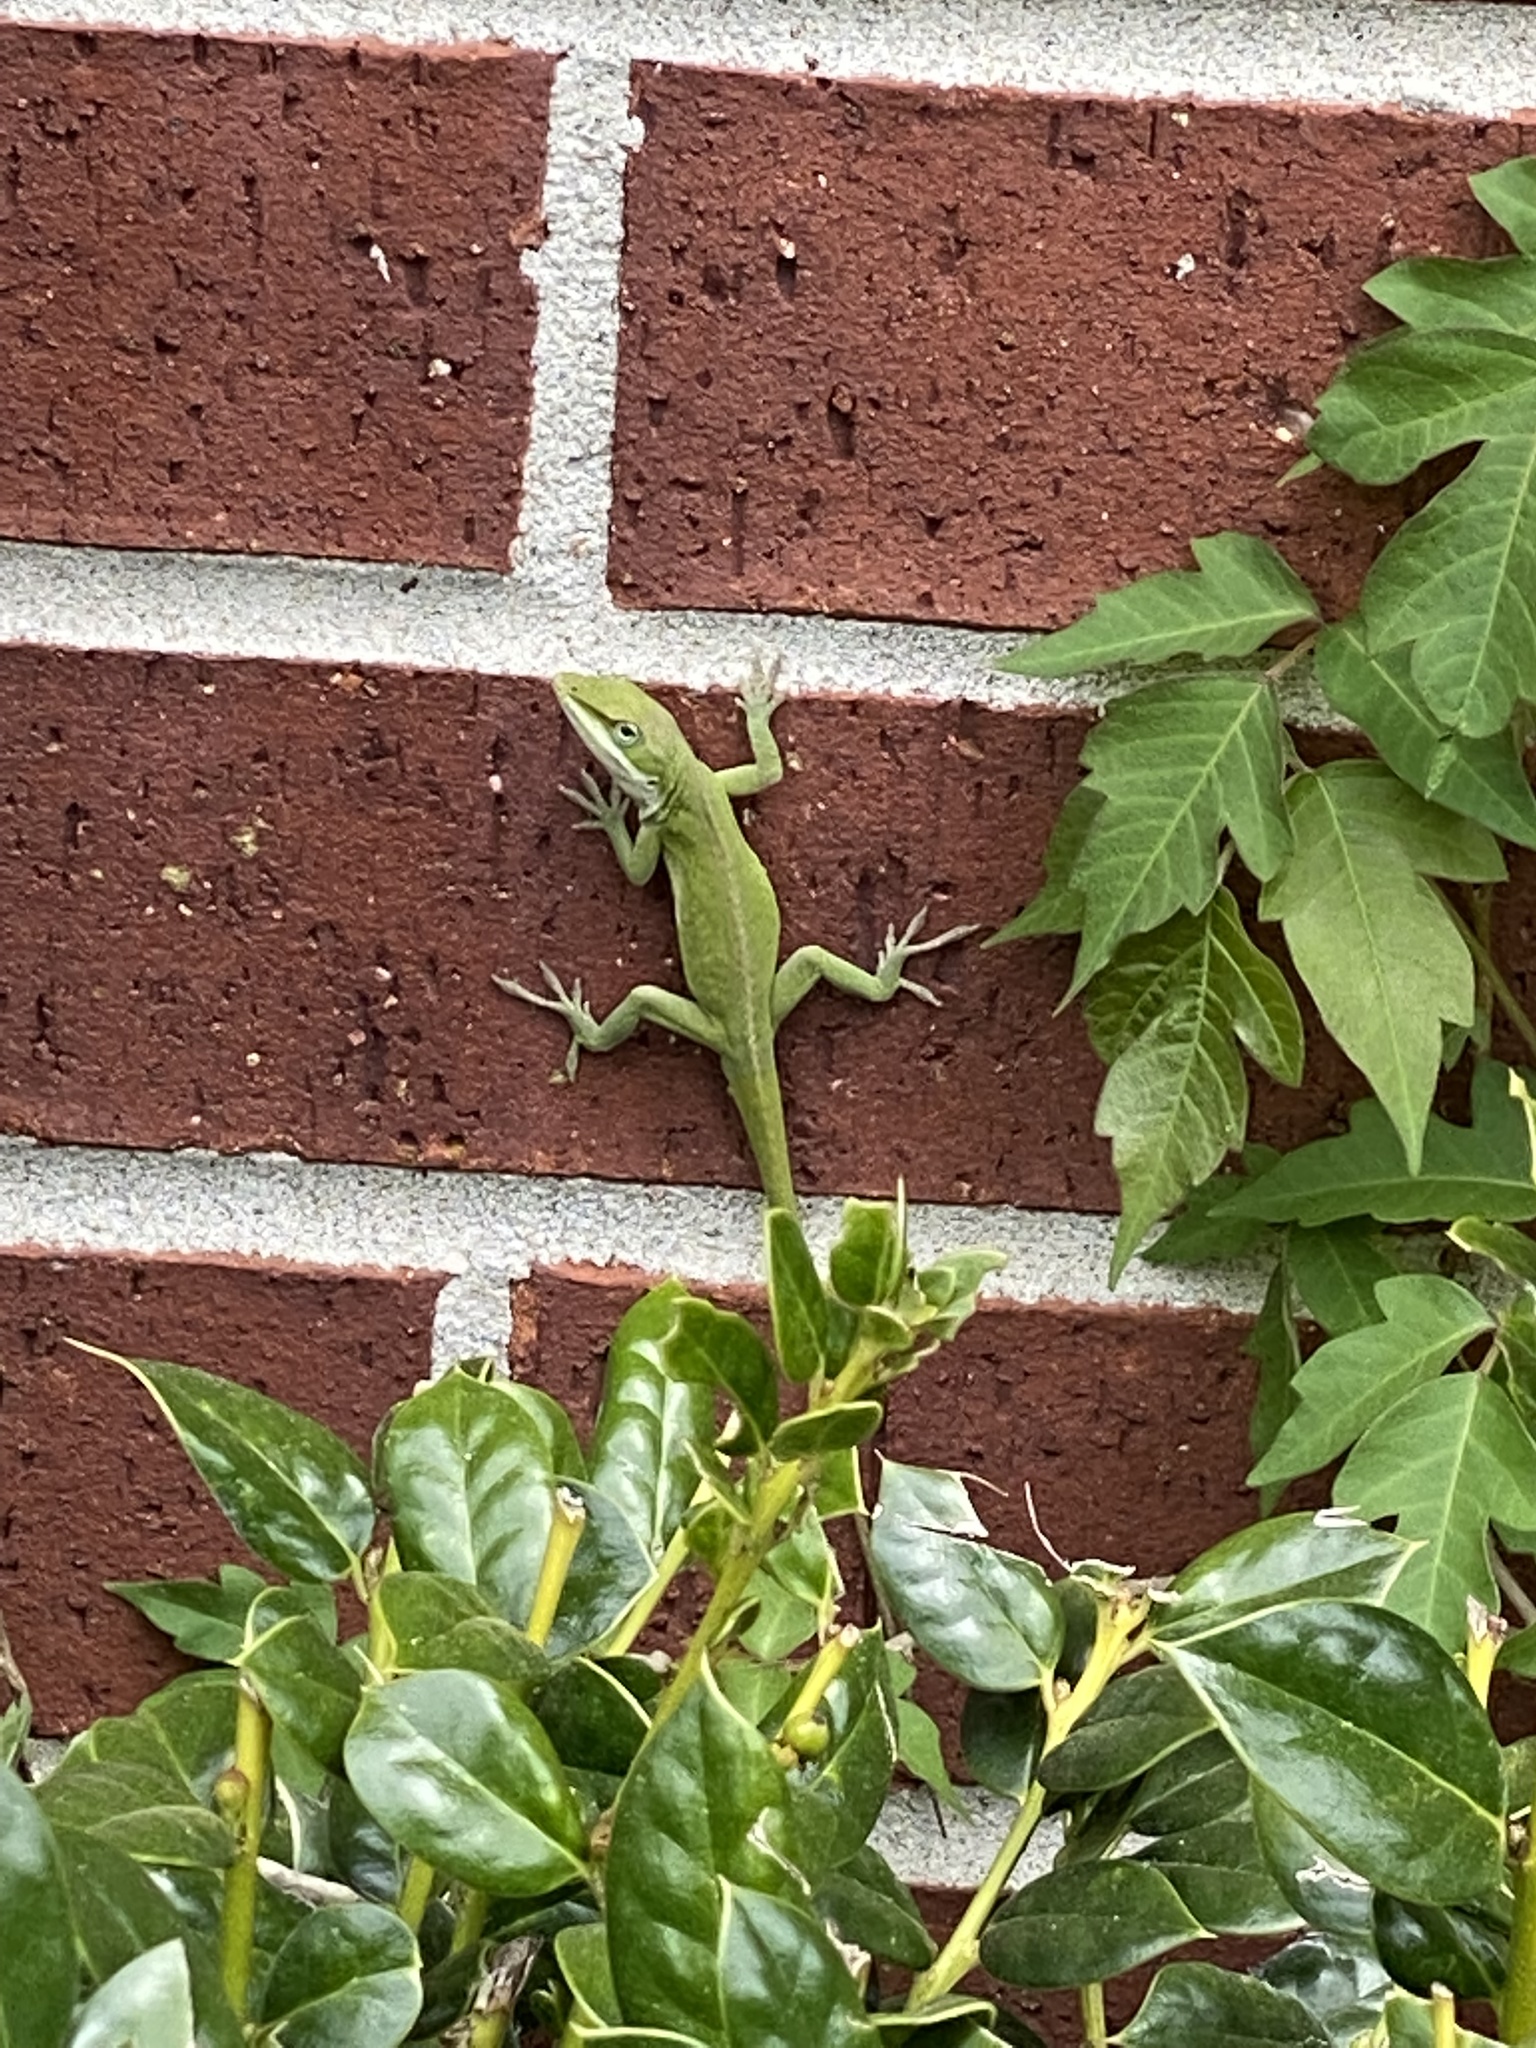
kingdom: Animalia
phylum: Chordata
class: Squamata
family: Dactyloidae
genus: Anolis
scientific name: Anolis carolinensis
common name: Green anole
